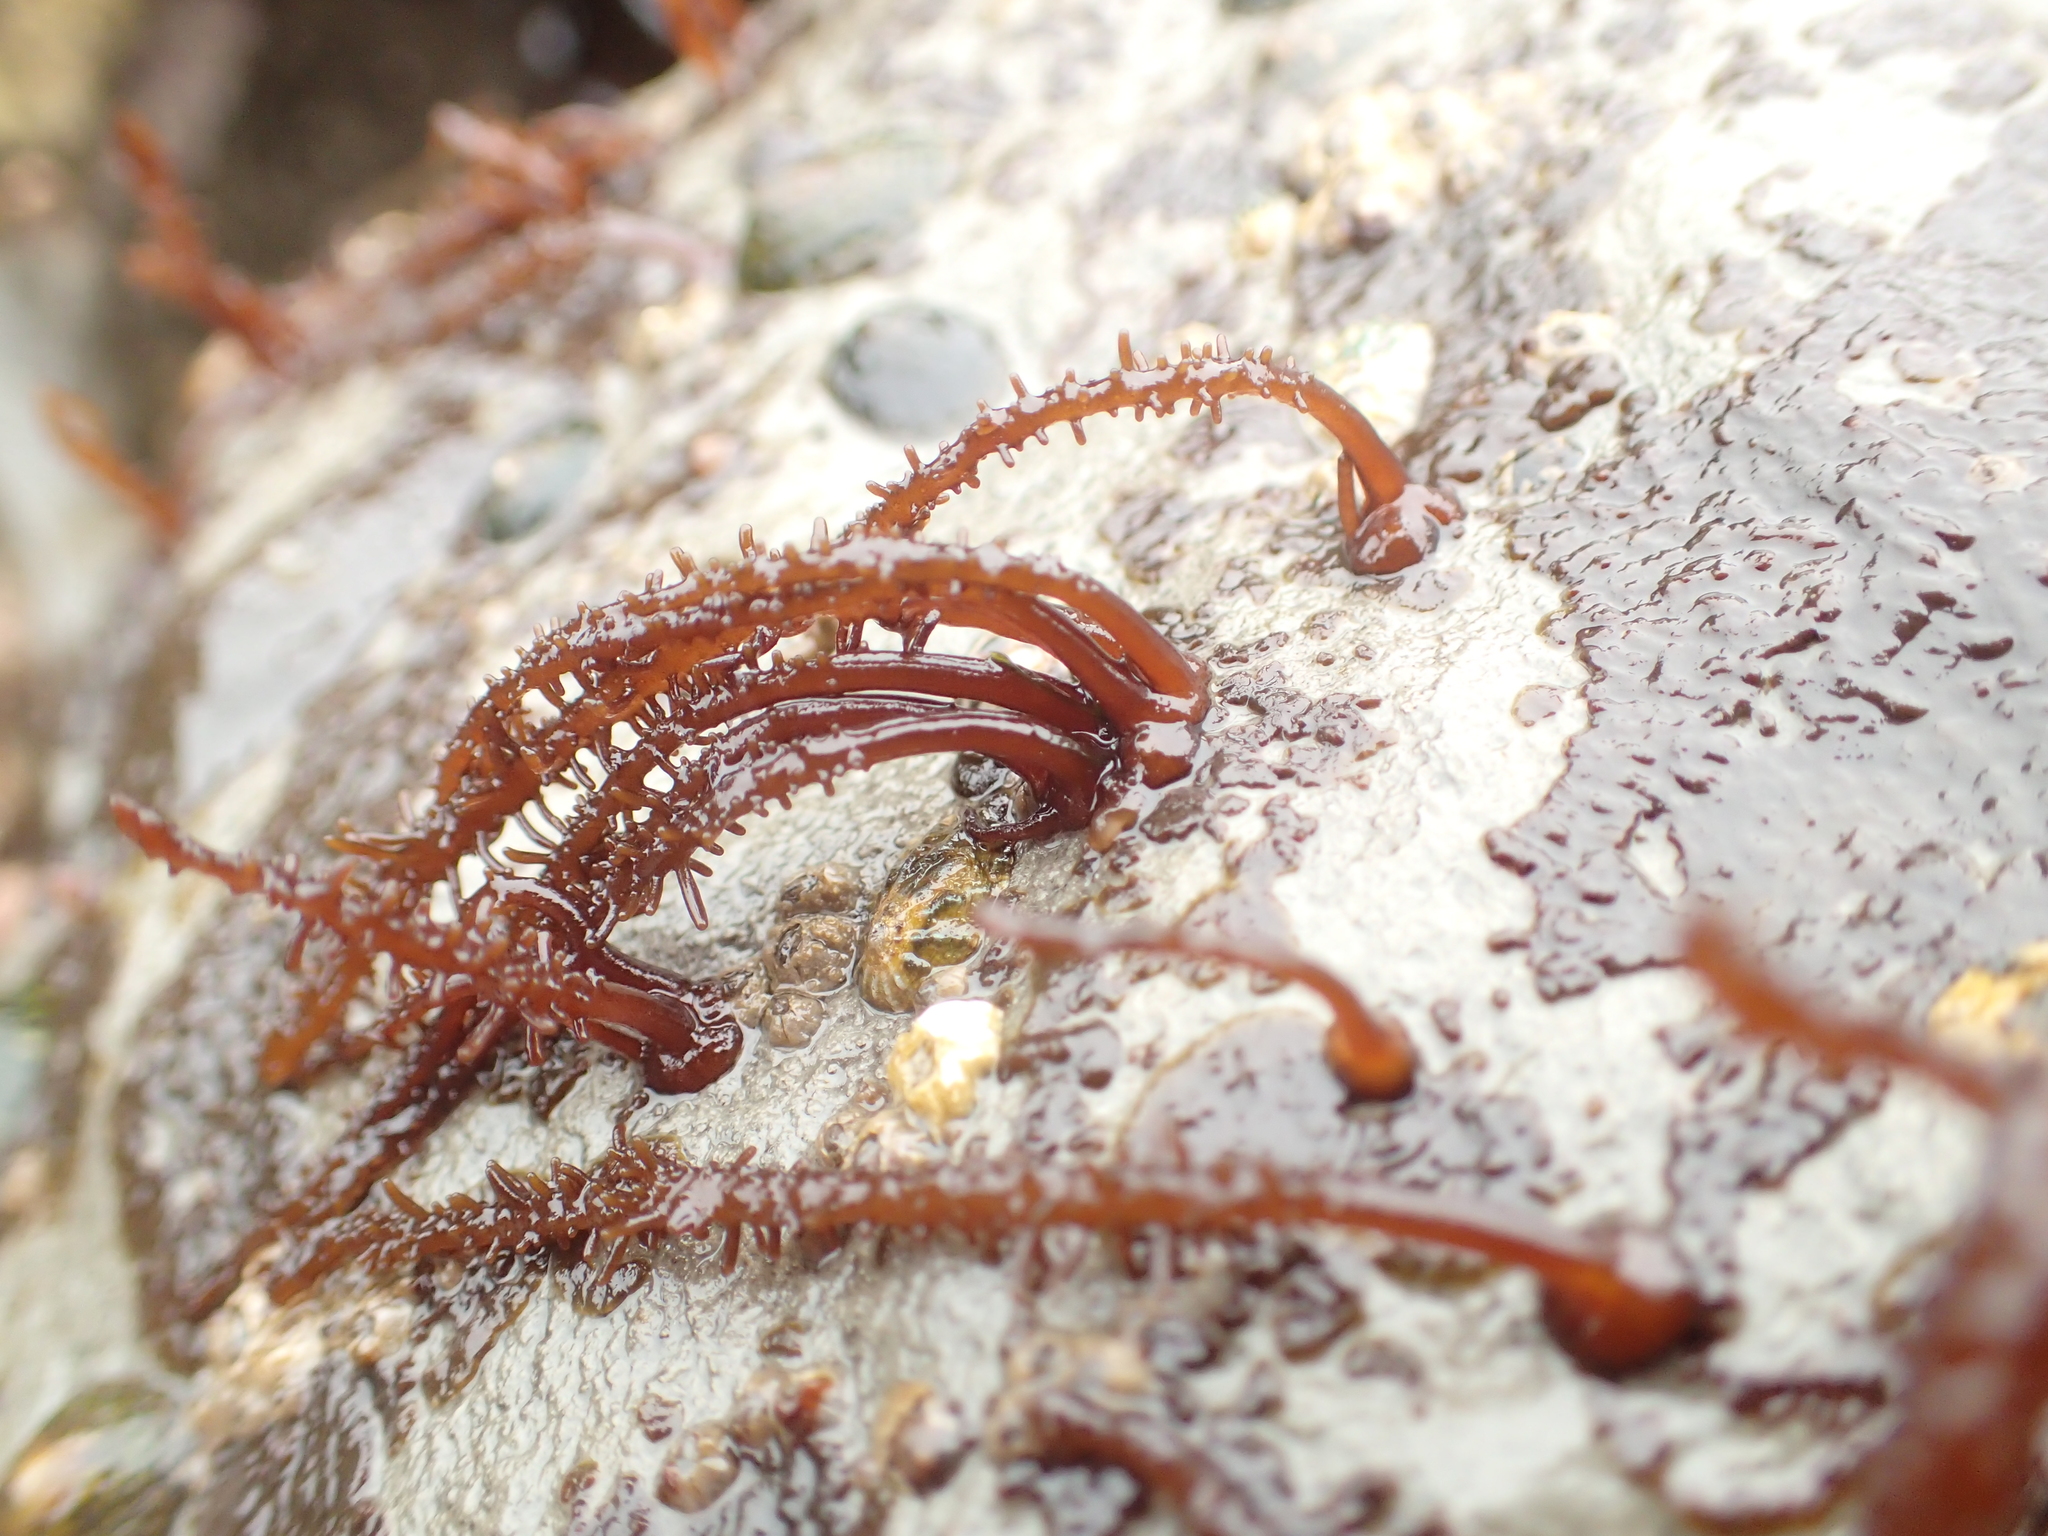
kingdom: Plantae
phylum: Rhodophyta
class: Florideophyceae
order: Nemaliales
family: Liagoraceae
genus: Cumagloia
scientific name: Cumagloia andersonii
